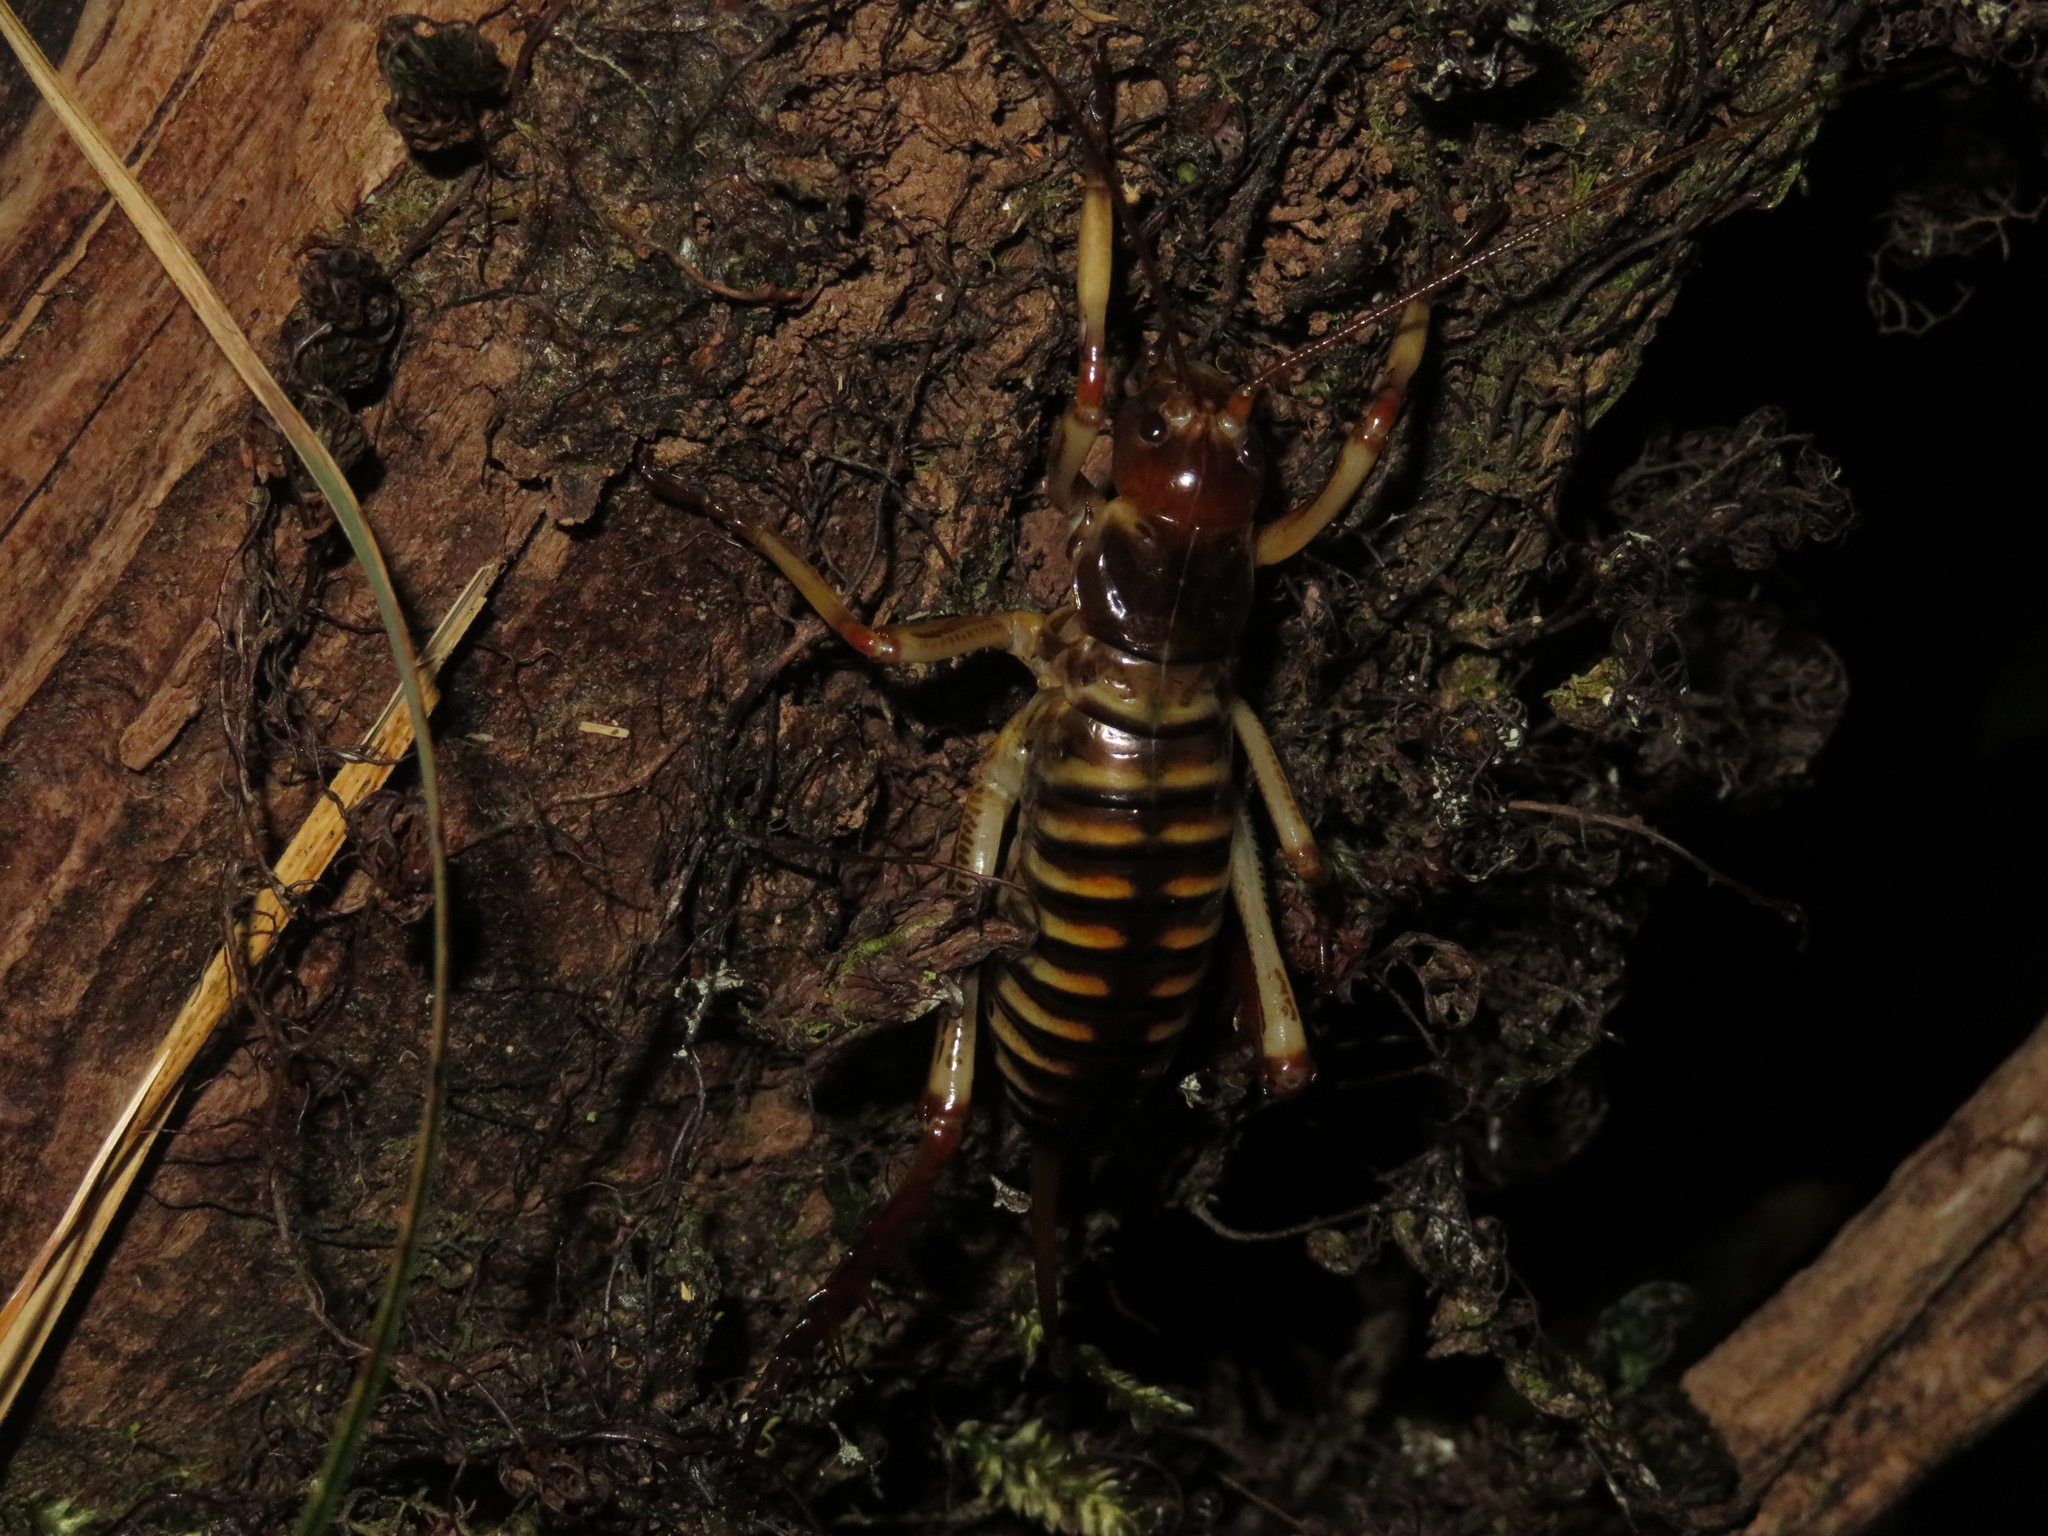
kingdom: Animalia
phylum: Arthropoda
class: Insecta
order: Orthoptera
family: Anostostomatidae
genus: Hemideina
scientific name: Hemideina crassidens
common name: Wellington tree weta
